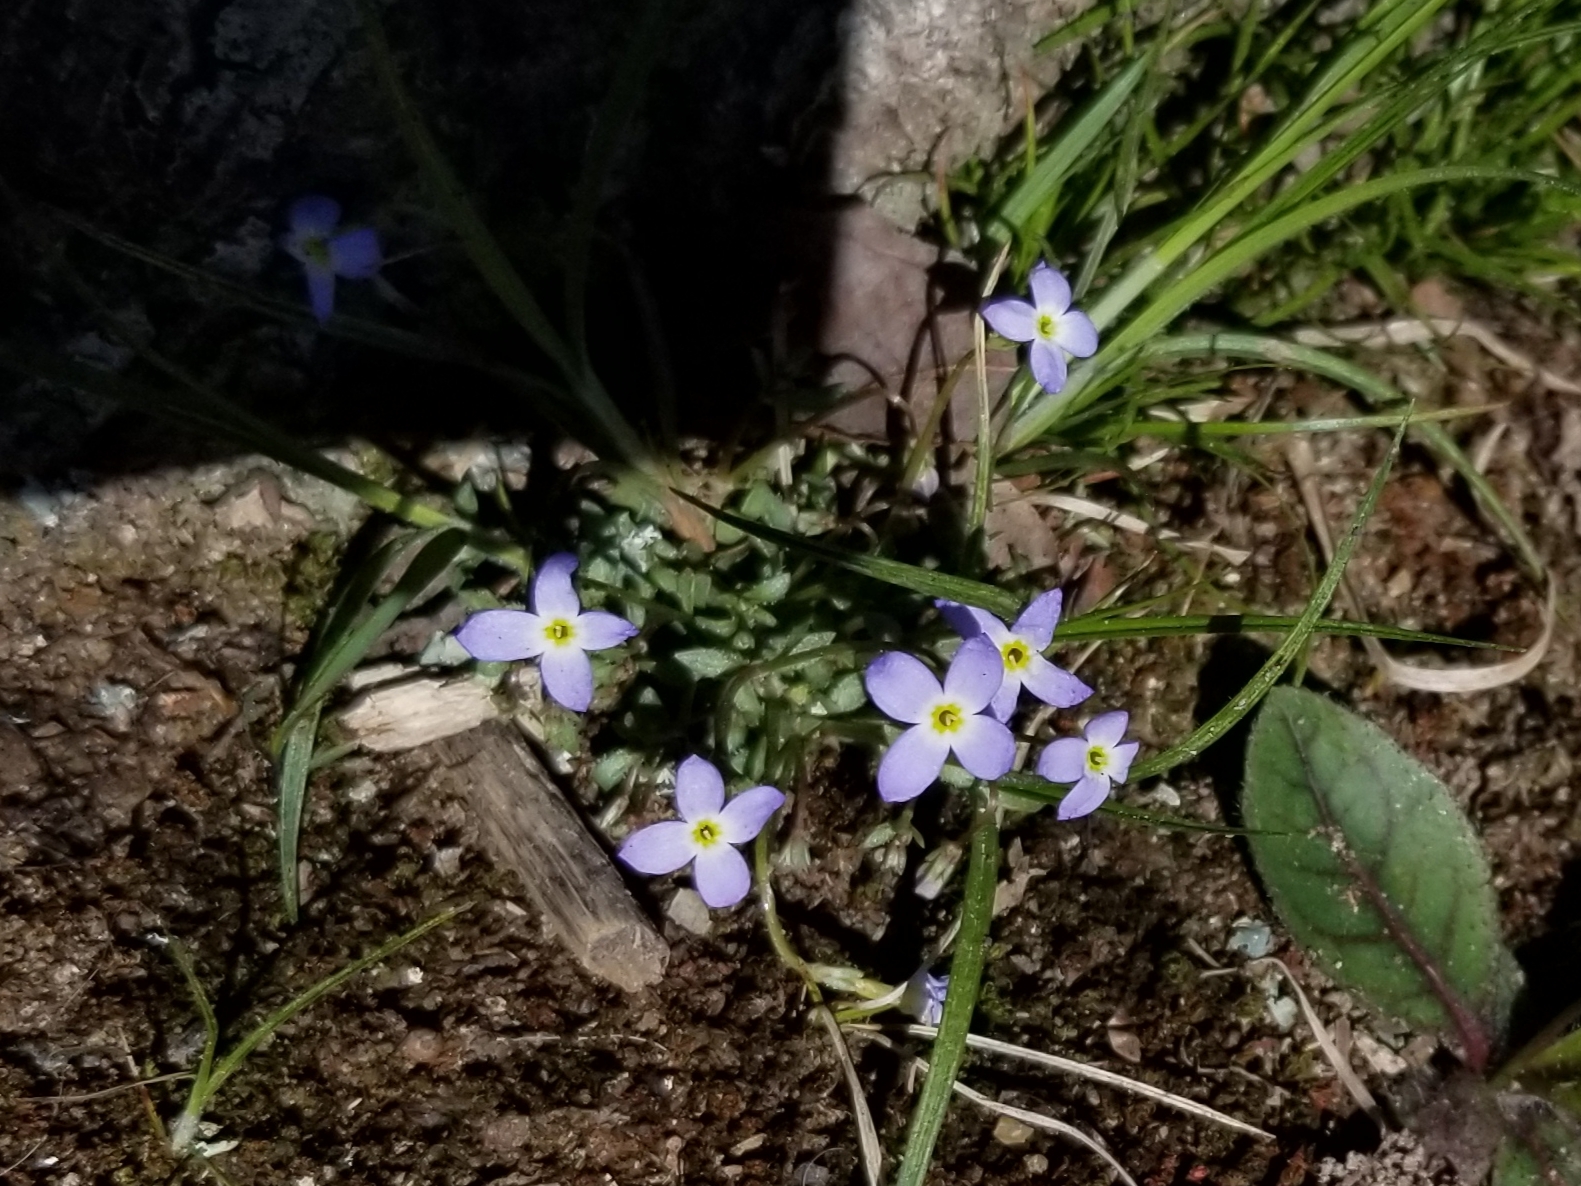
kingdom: Plantae
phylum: Tracheophyta
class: Magnoliopsida
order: Gentianales
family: Rubiaceae
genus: Houstonia
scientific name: Houstonia caerulea
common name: Bluets
